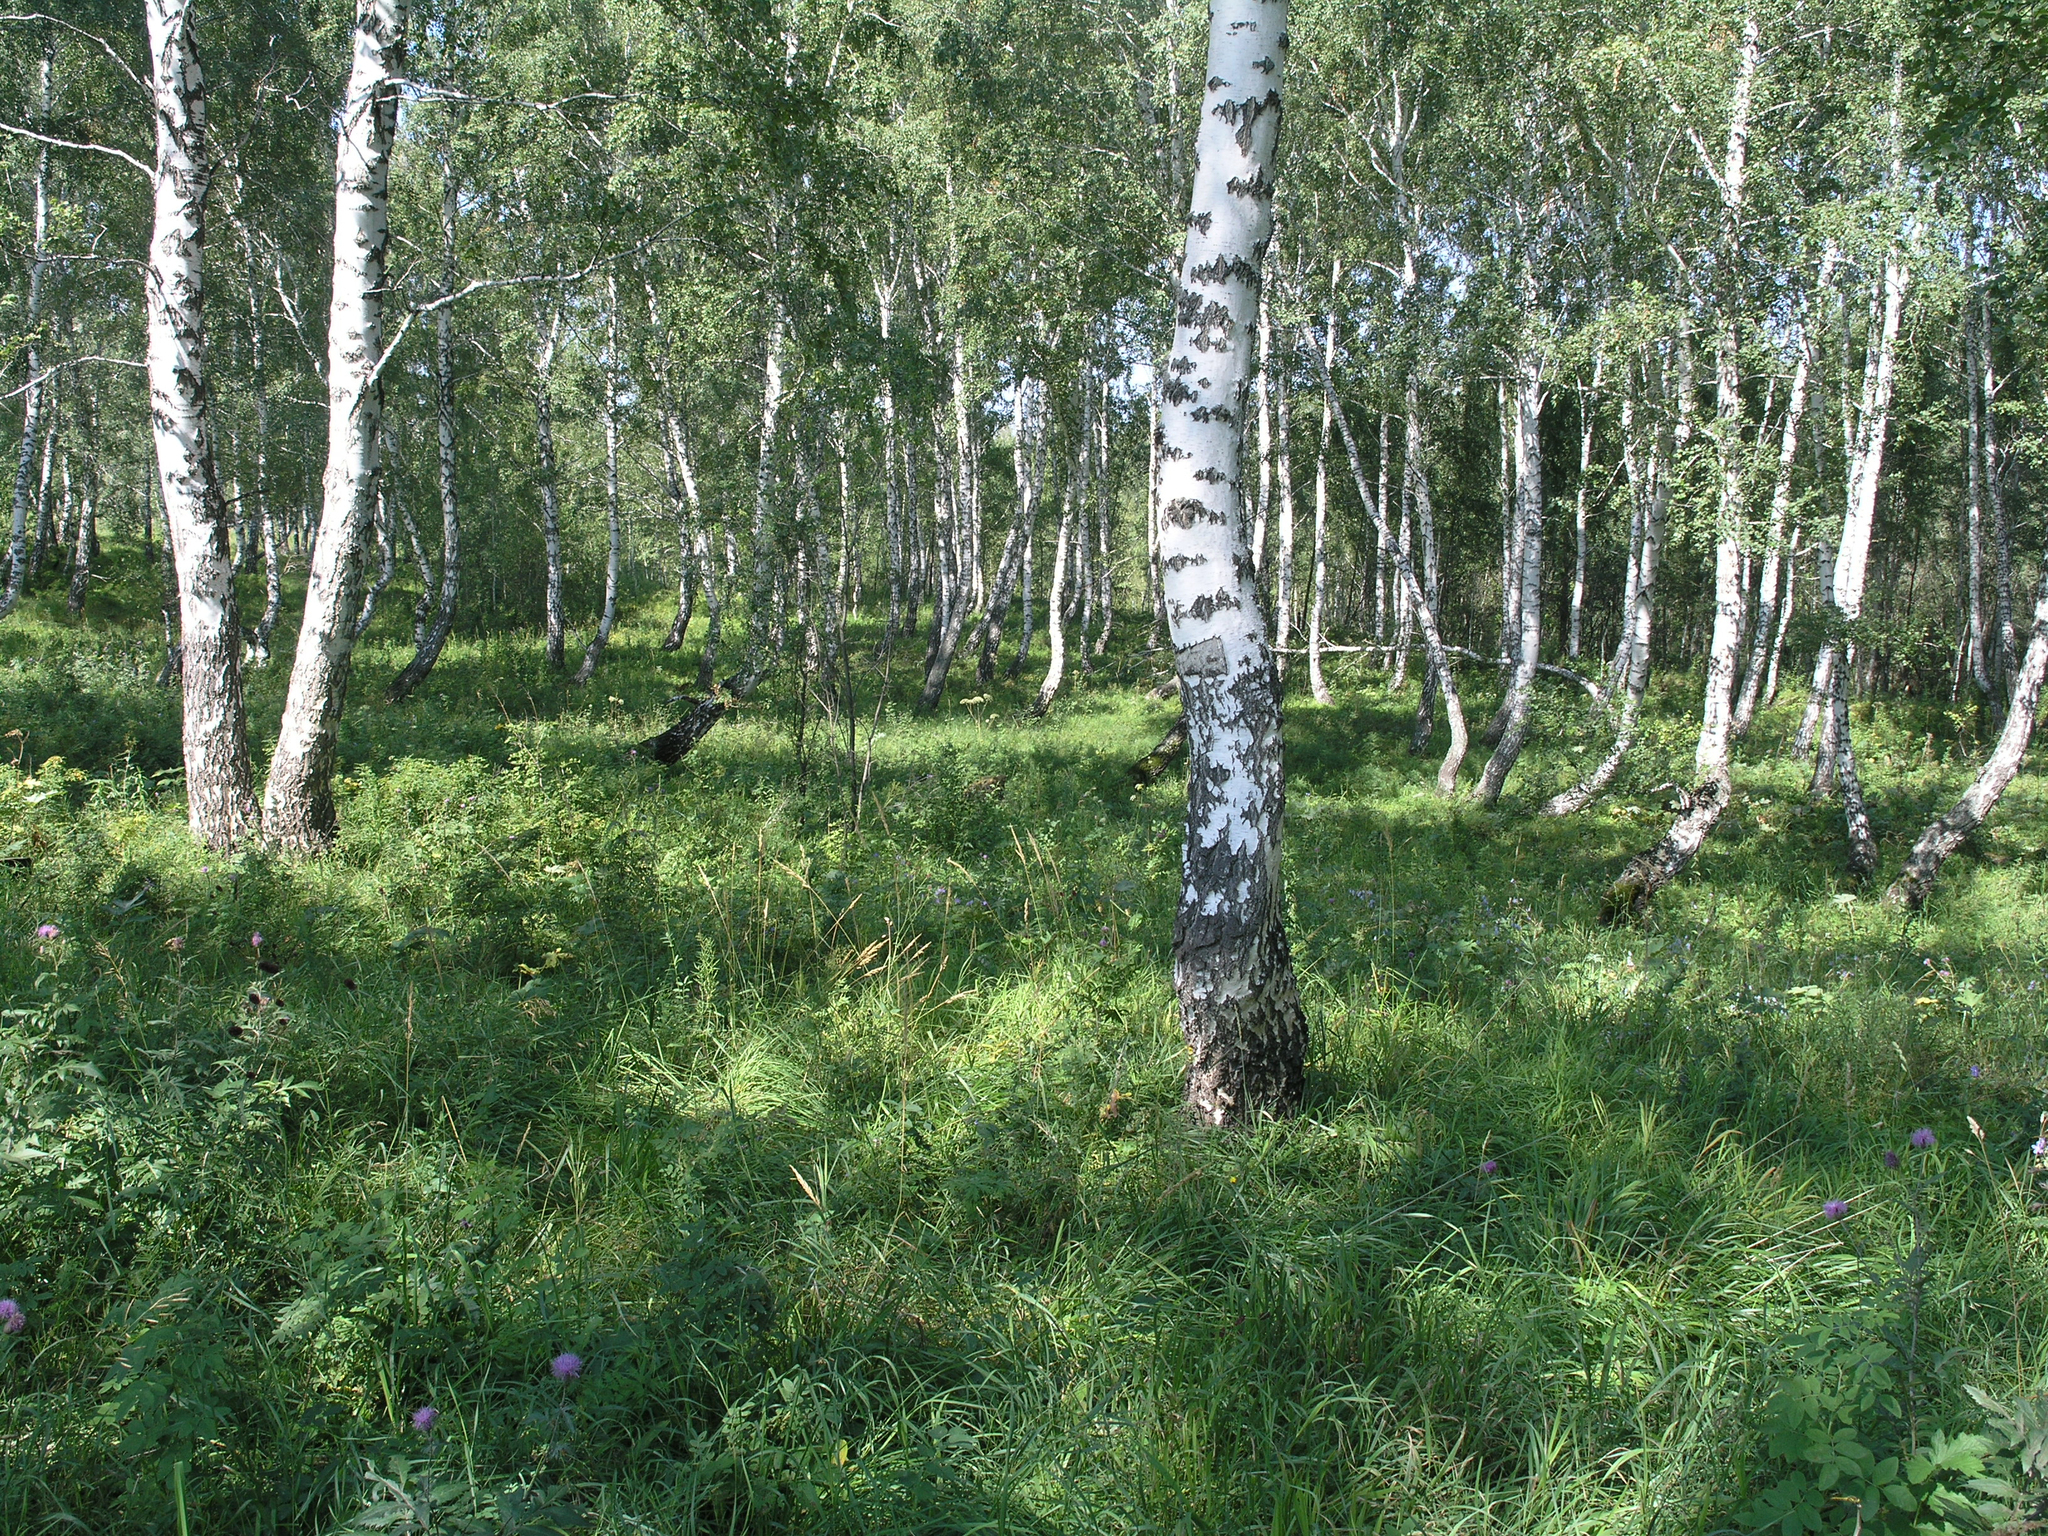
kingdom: Plantae
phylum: Tracheophyta
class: Magnoliopsida
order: Fagales
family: Betulaceae
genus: Betula
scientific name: Betula pendula
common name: Silver birch
